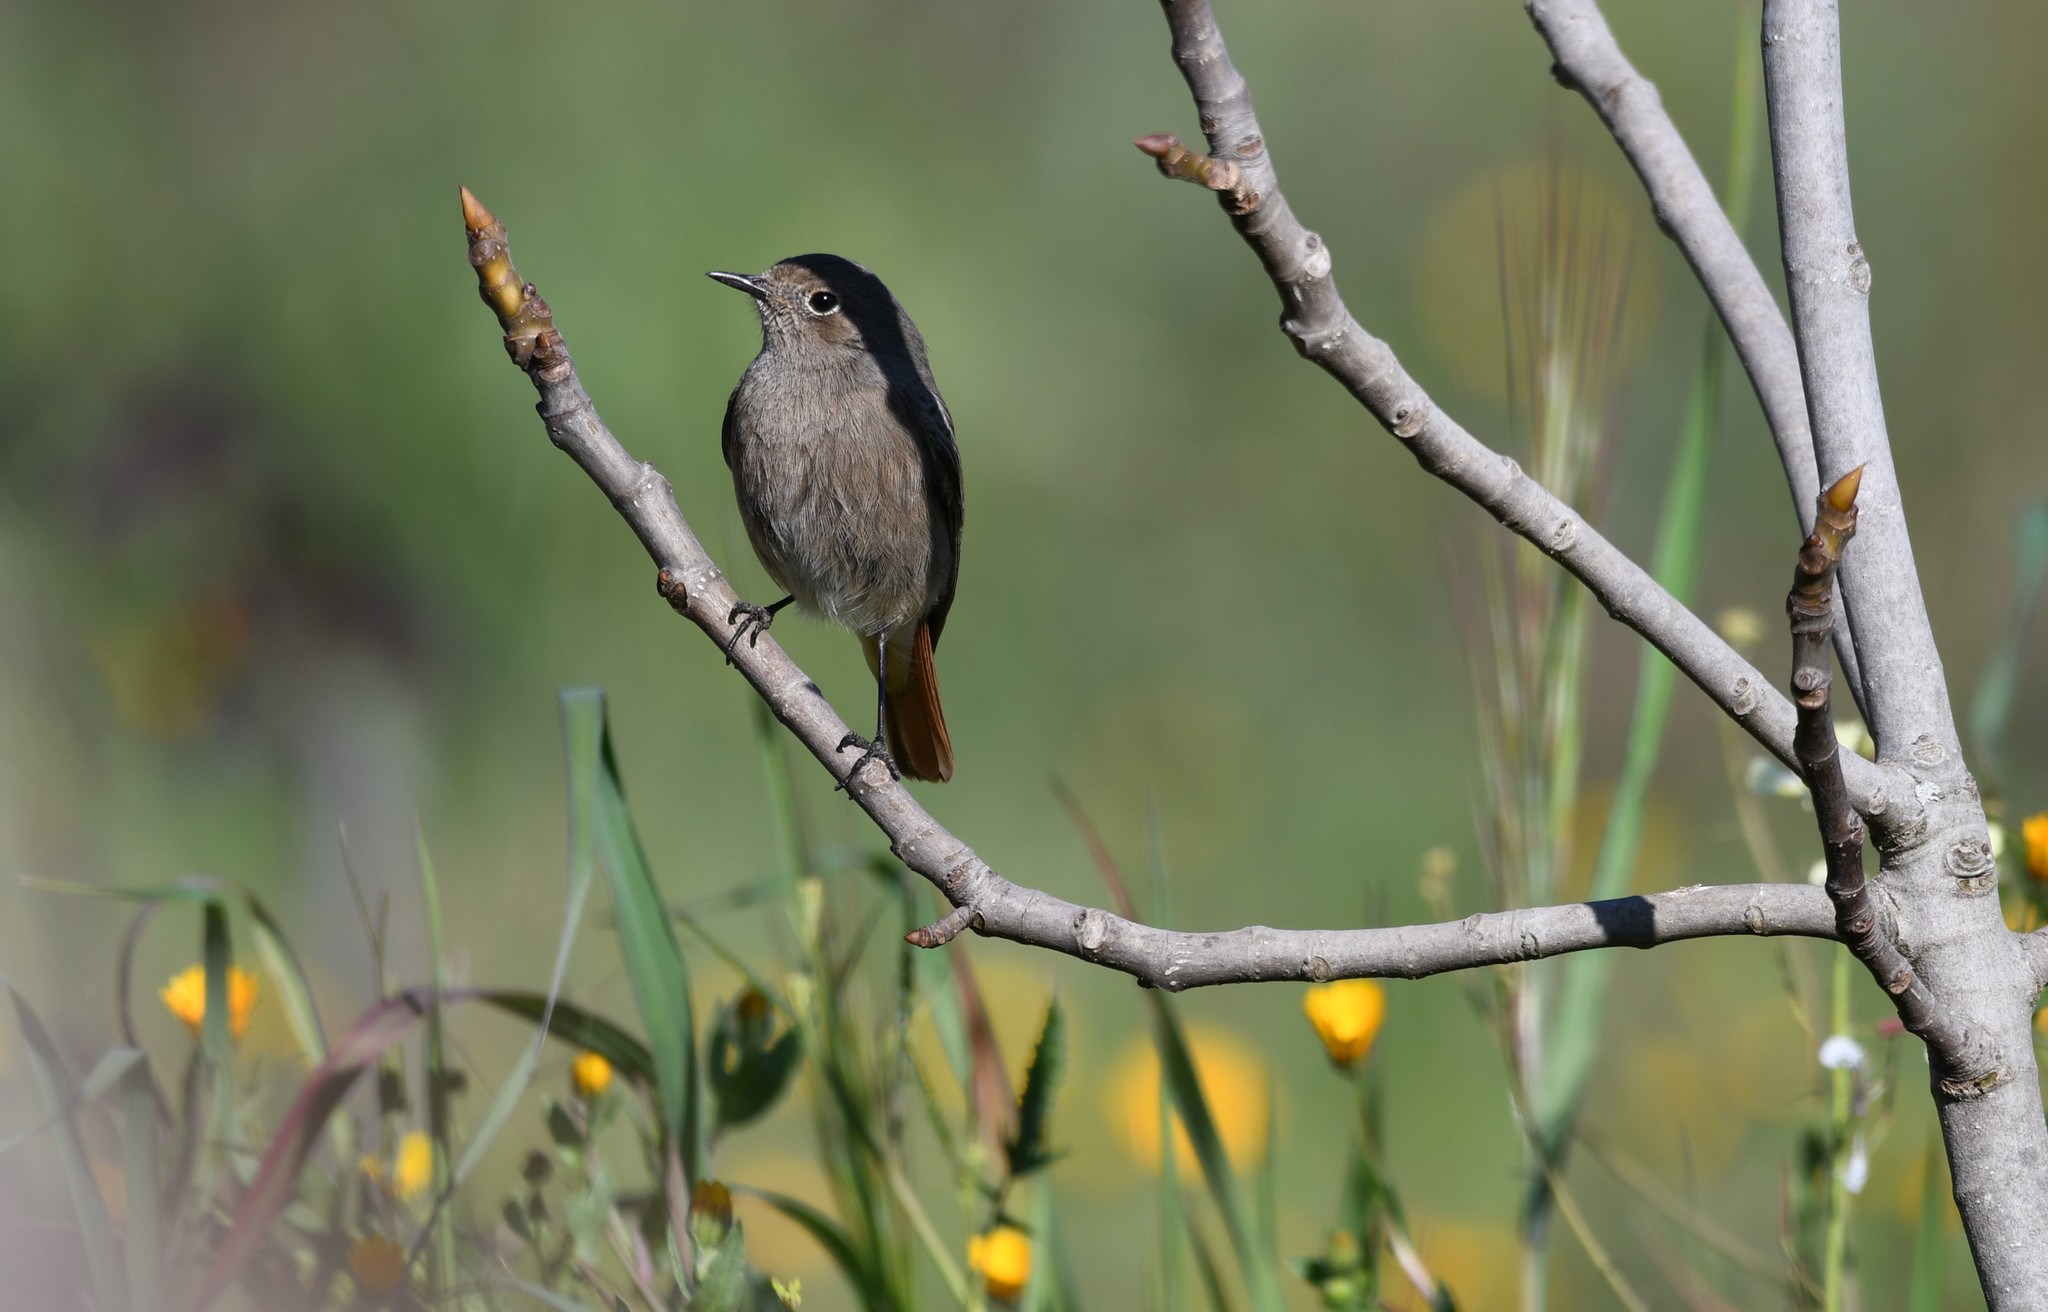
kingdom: Animalia
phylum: Chordata
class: Aves
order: Passeriformes
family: Muscicapidae
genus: Phoenicurus
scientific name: Phoenicurus ochruros
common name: Black redstart
